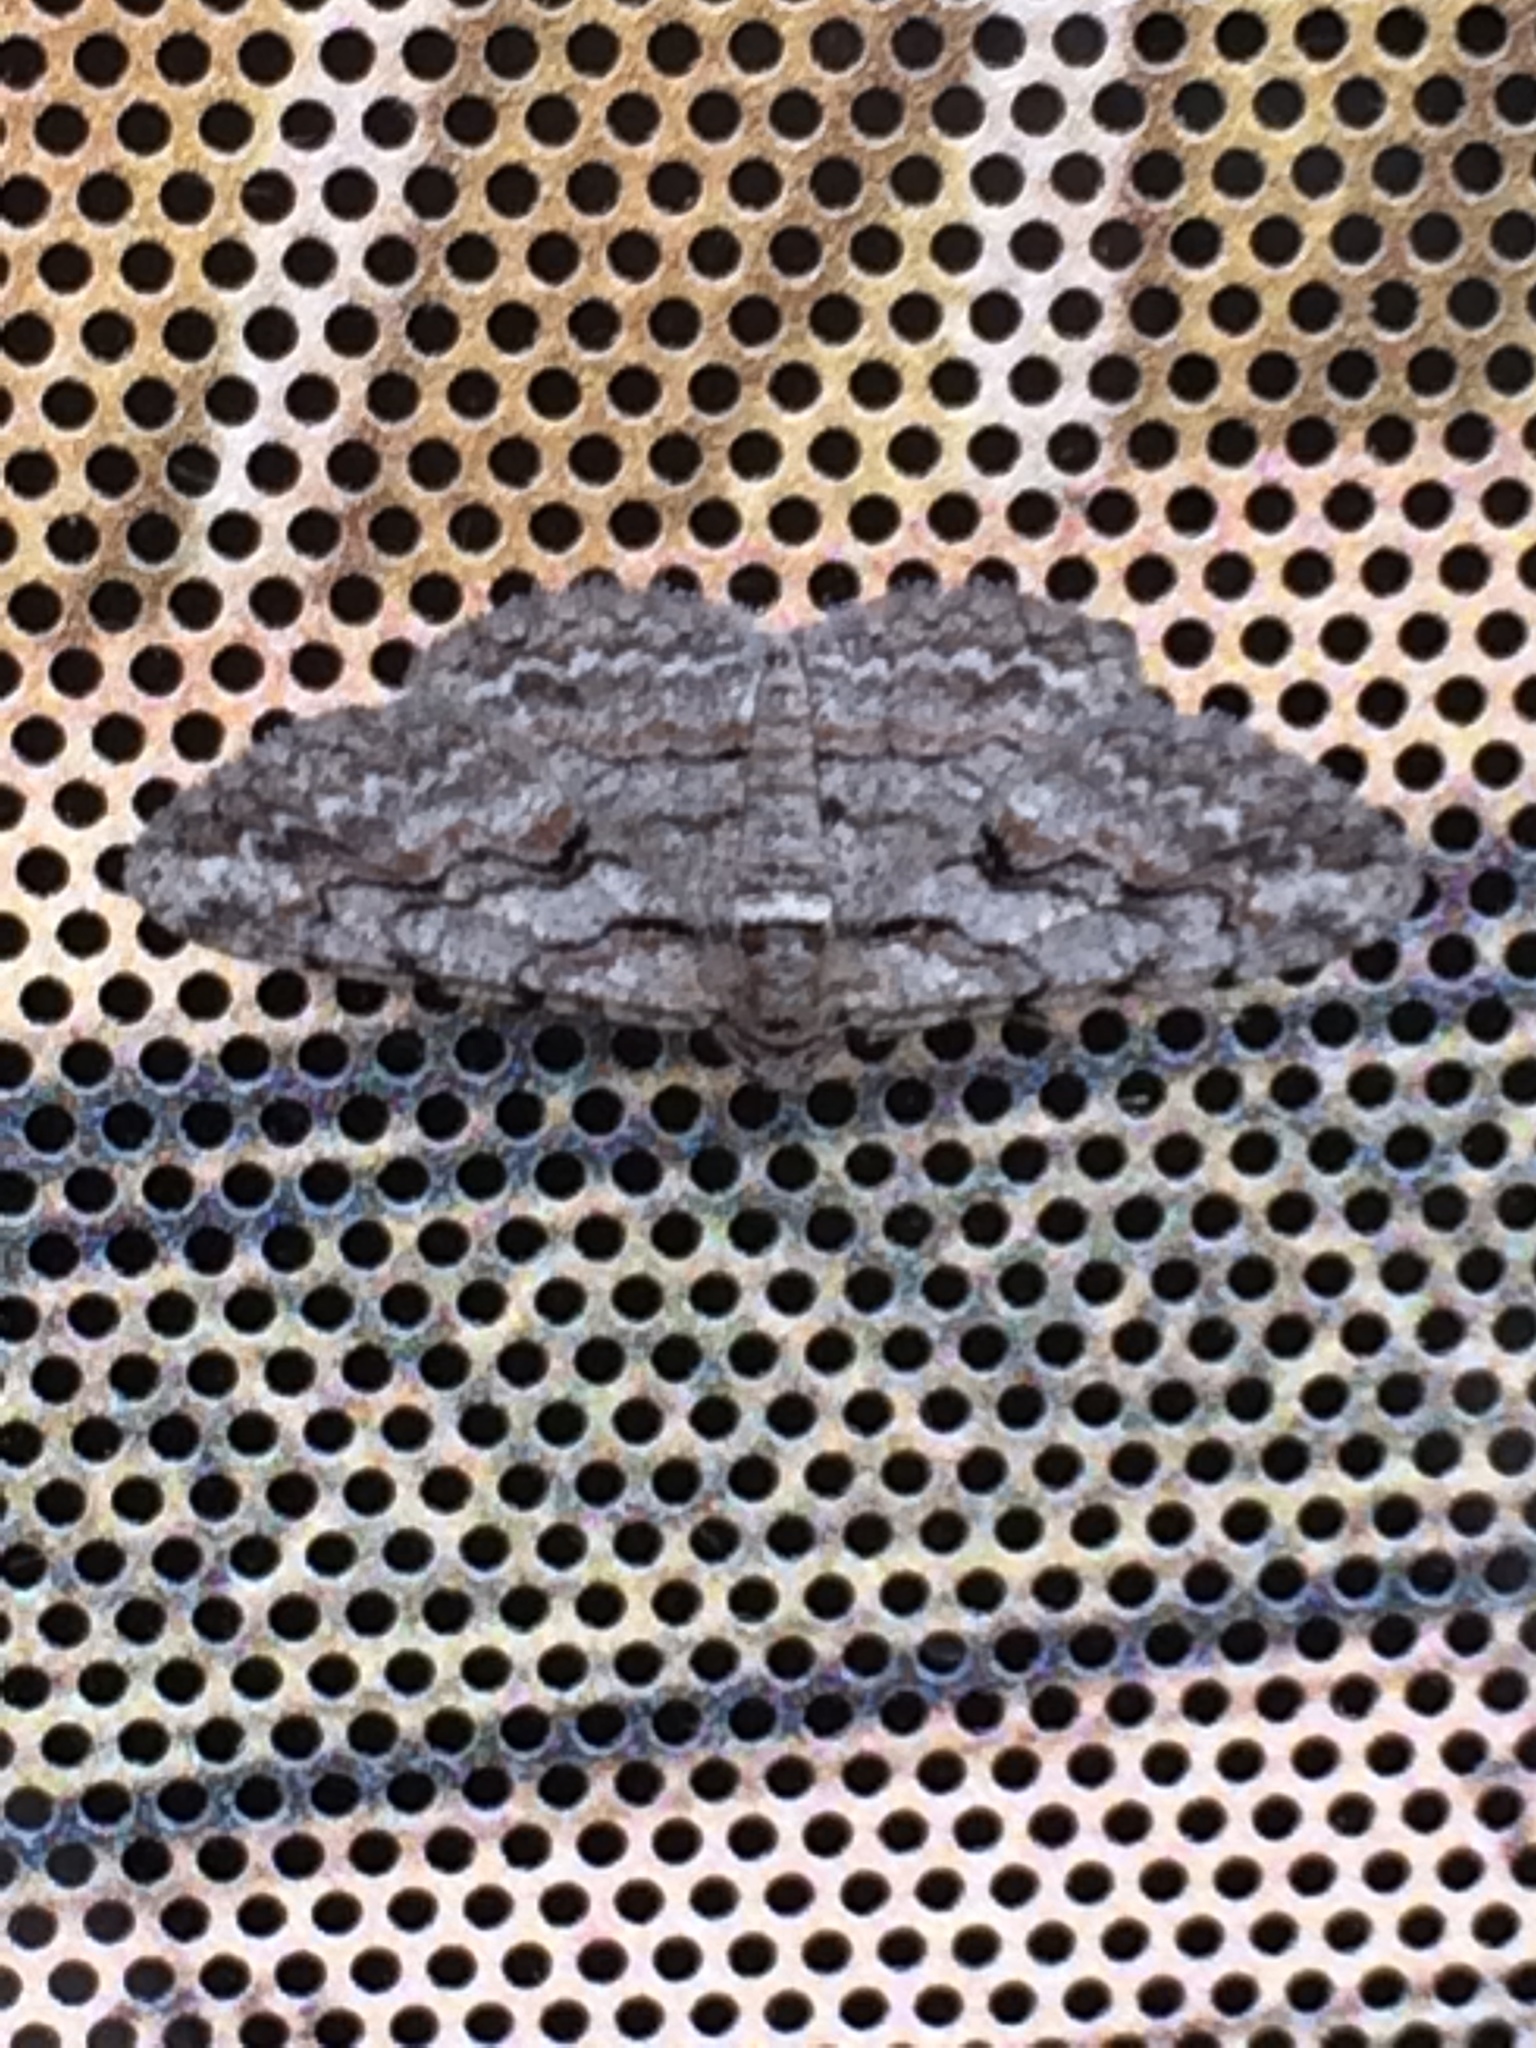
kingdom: Animalia
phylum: Arthropoda
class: Insecta
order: Lepidoptera
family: Geometridae
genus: Iridopsis
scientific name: Iridopsis defectaria
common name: Brown-shaded gray
